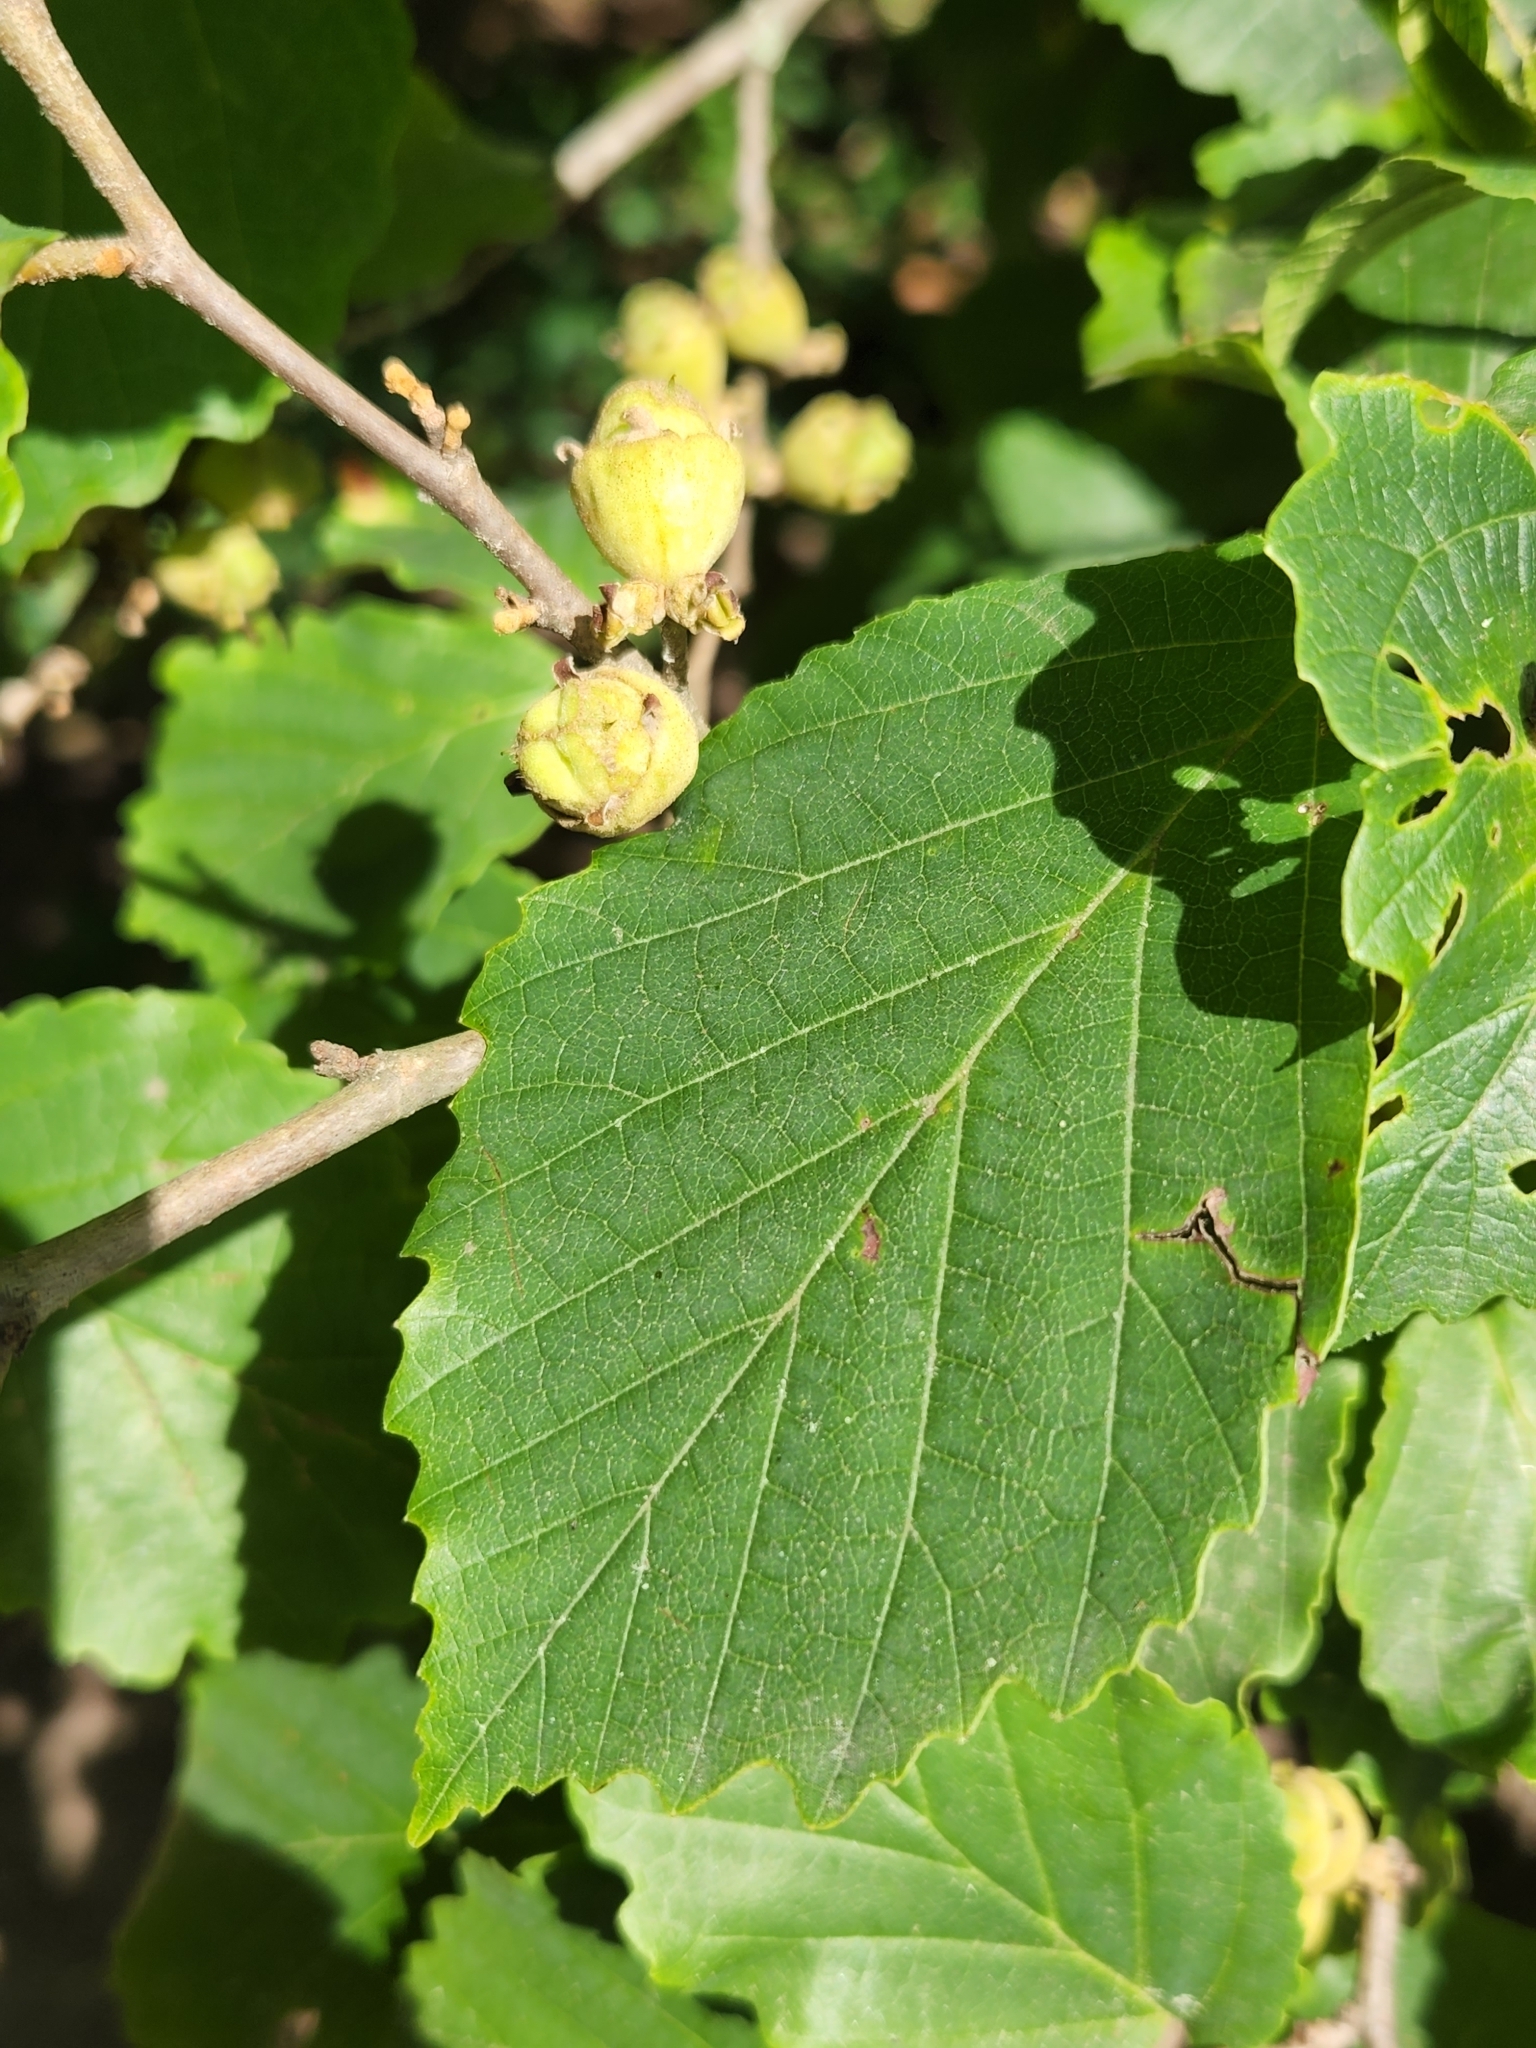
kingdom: Plantae
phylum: Tracheophyta
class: Magnoliopsida
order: Saxifragales
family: Hamamelidaceae
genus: Hamamelis
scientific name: Hamamelis virginiana
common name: Witch-hazel
